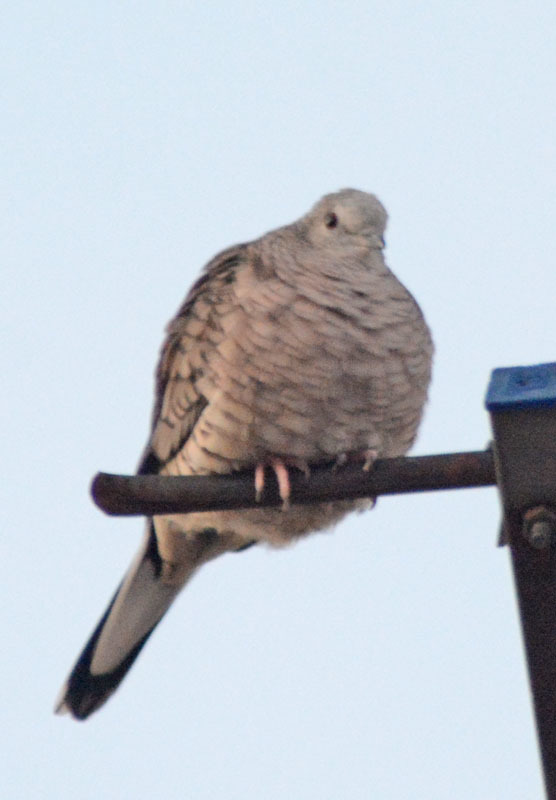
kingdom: Animalia
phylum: Chordata
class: Aves
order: Columbiformes
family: Columbidae
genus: Columbina
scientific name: Columbina inca
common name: Inca dove
